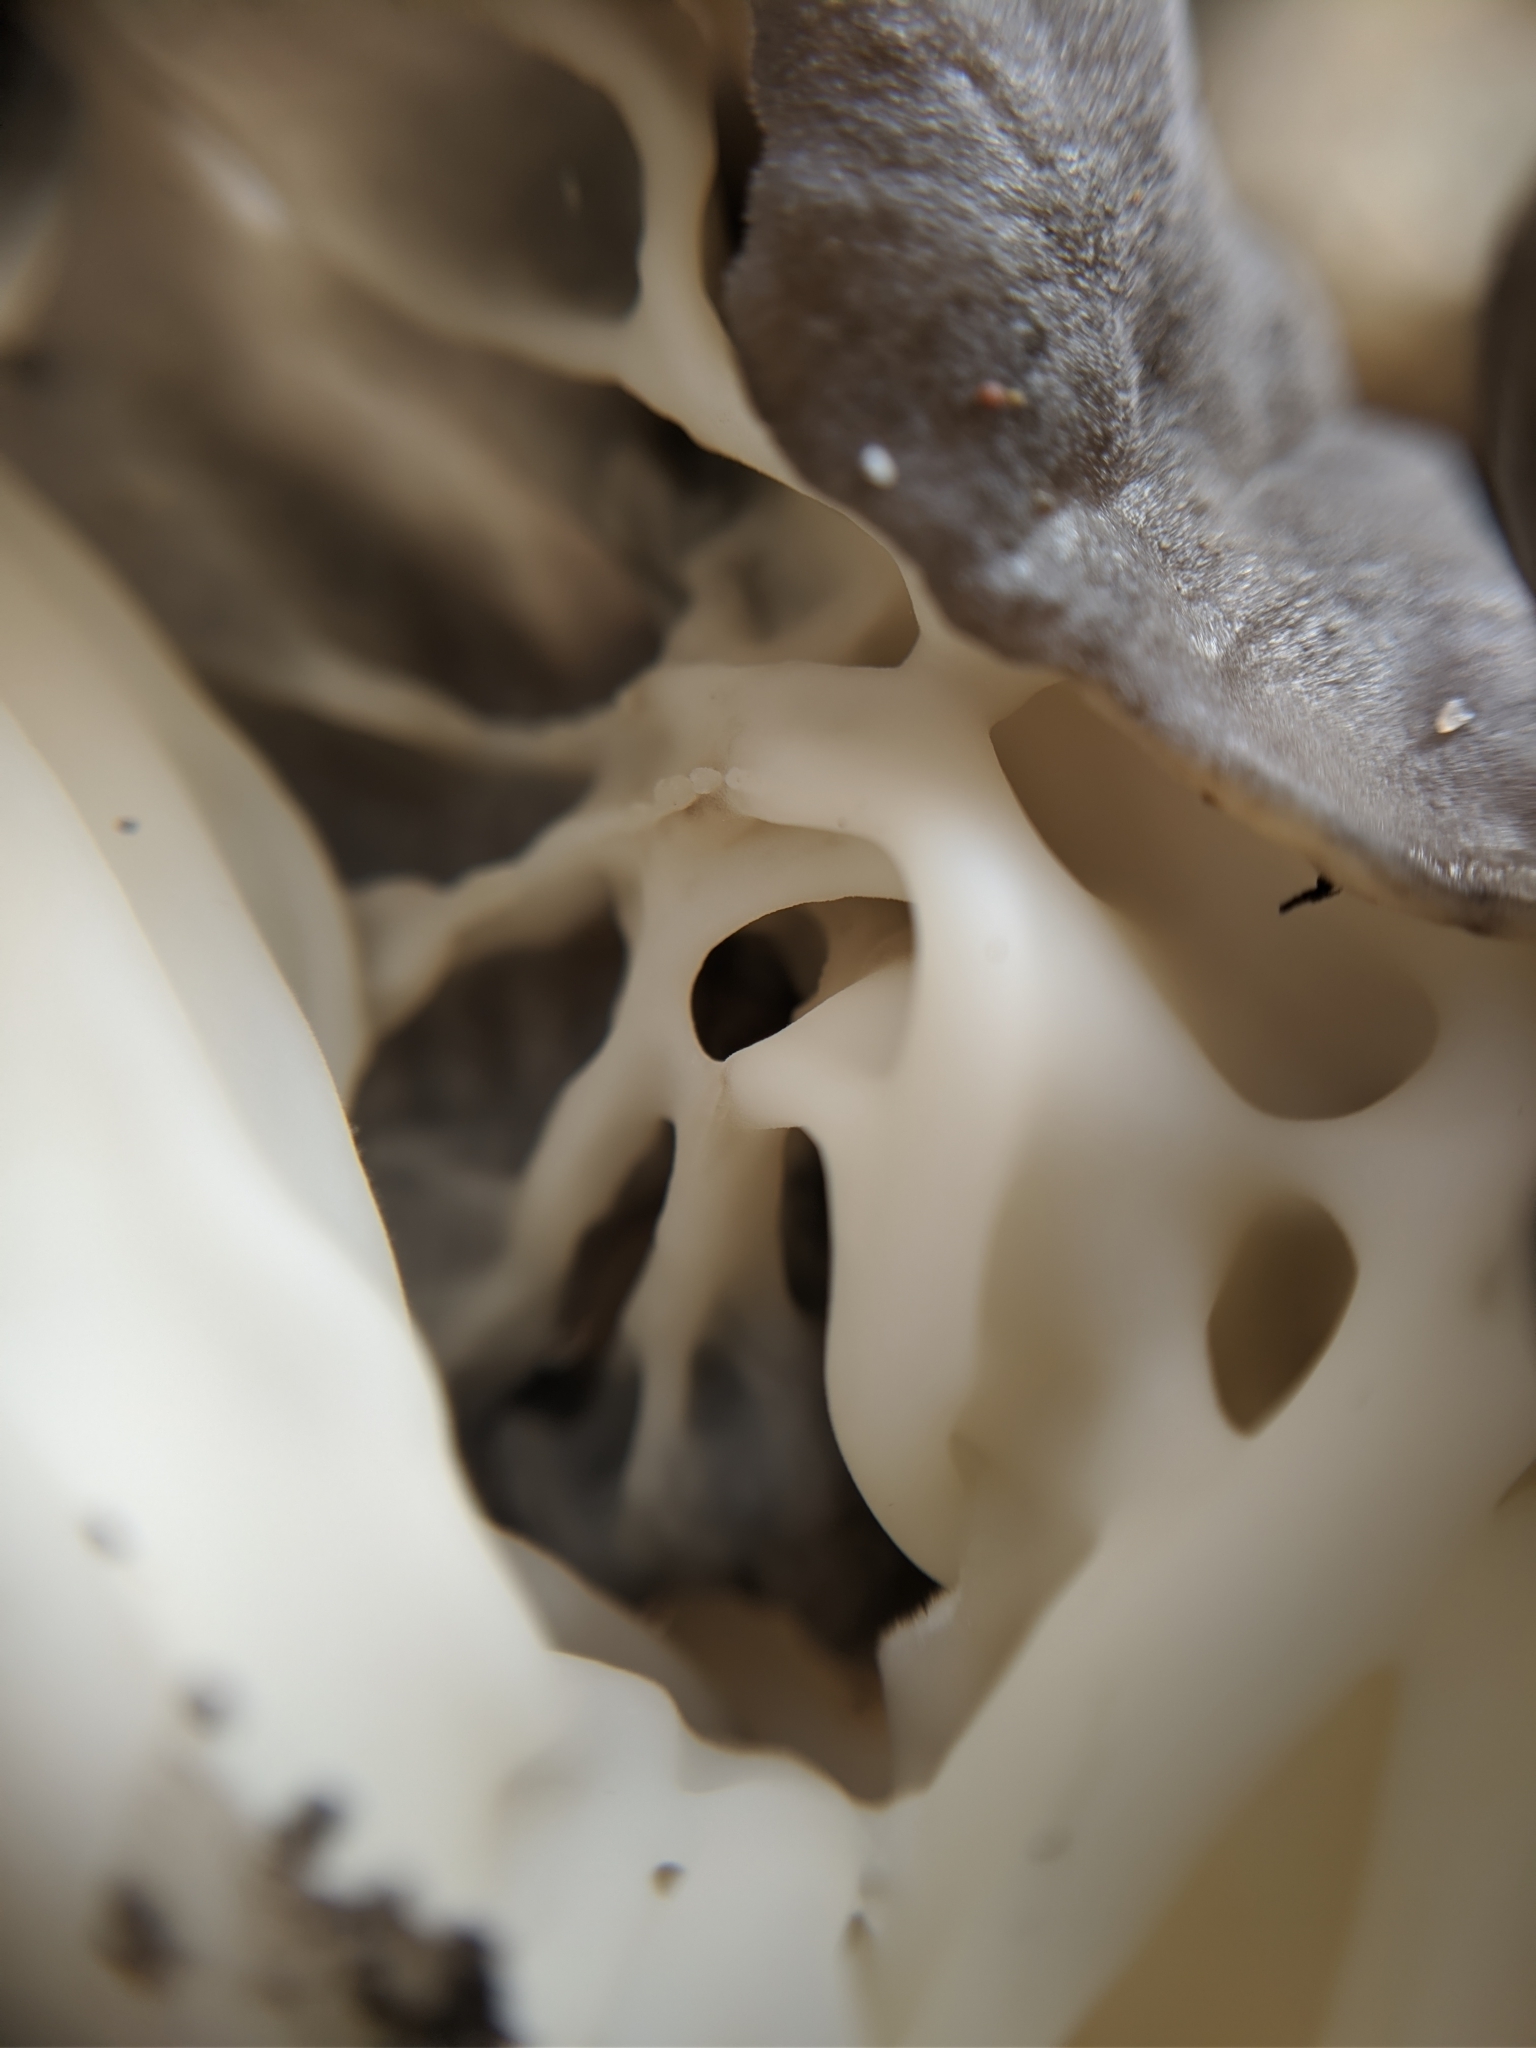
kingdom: Fungi
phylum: Ascomycota
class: Pezizomycetes
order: Pezizales
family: Helvellaceae
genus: Helvella
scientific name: Helvella vespertina
